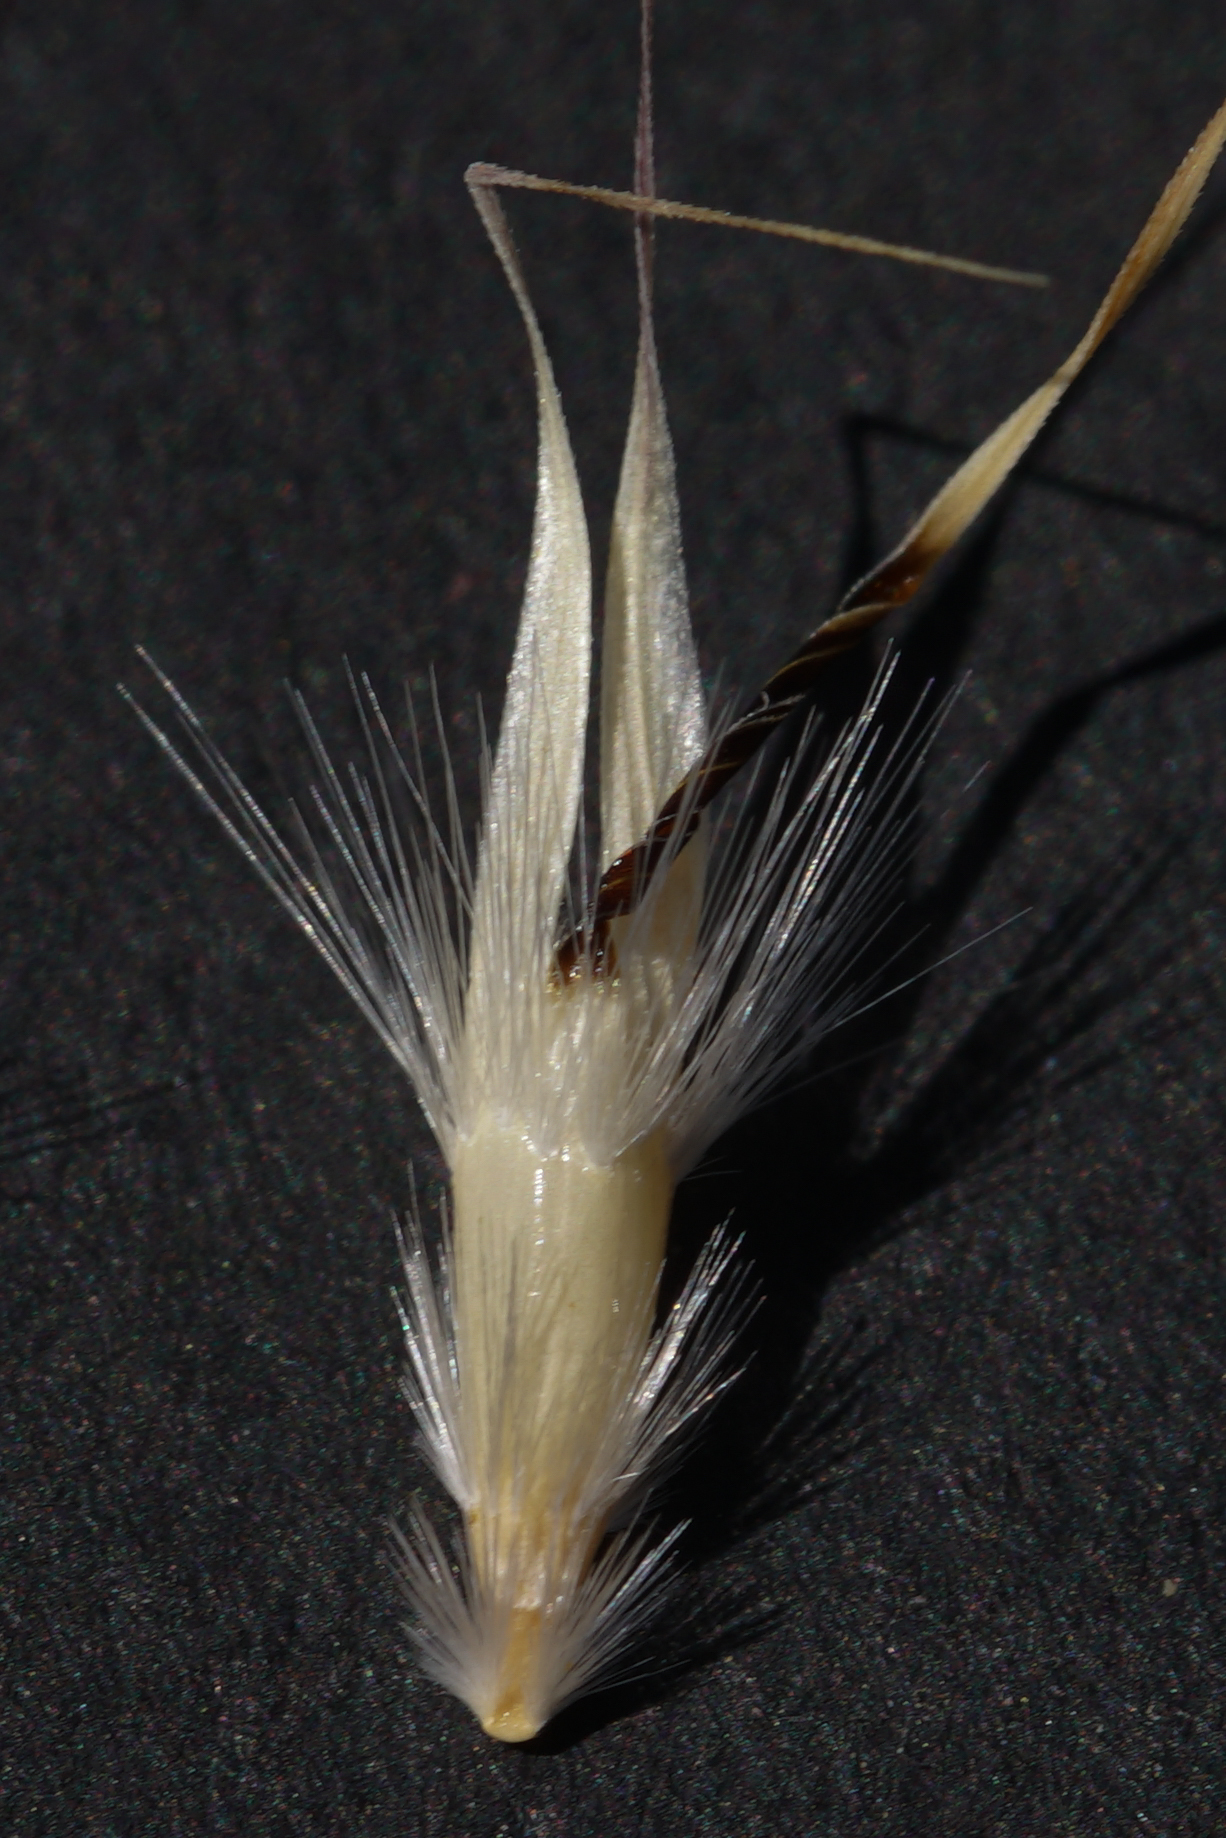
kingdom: Plantae
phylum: Tracheophyta
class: Liliopsida
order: Poales
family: Poaceae
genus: Rytidosperma
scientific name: Rytidosperma erianthum
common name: Hill wallaby grass
